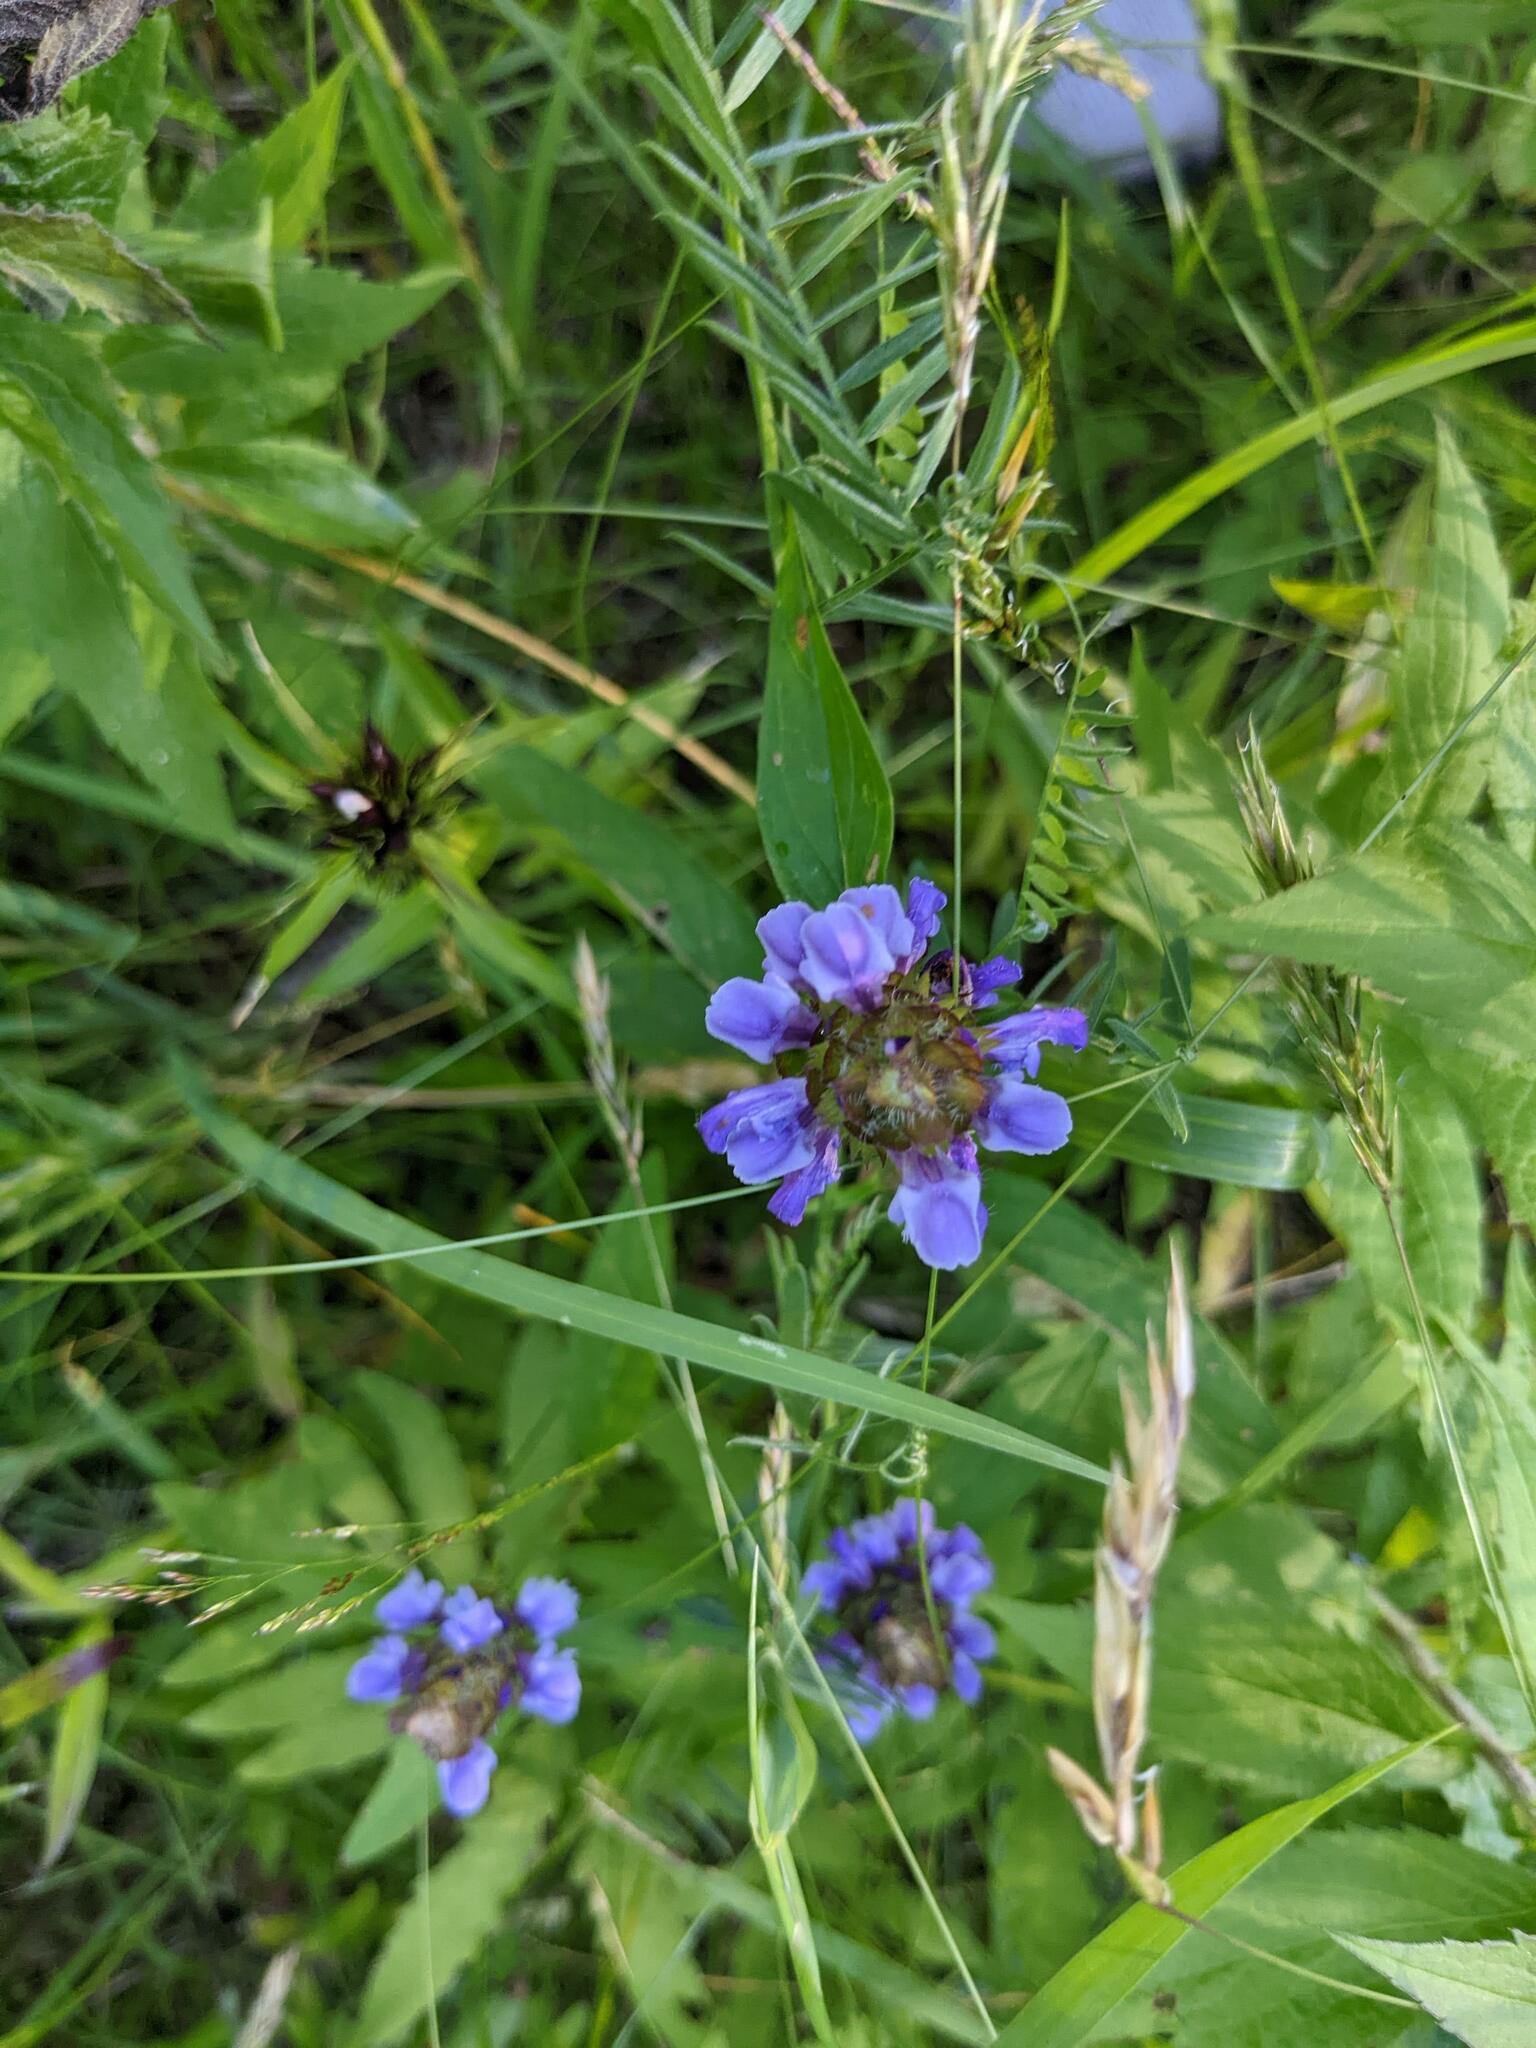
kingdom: Plantae
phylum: Tracheophyta
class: Magnoliopsida
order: Lamiales
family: Lamiaceae
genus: Prunella
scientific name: Prunella vulgaris
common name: Heal-all
